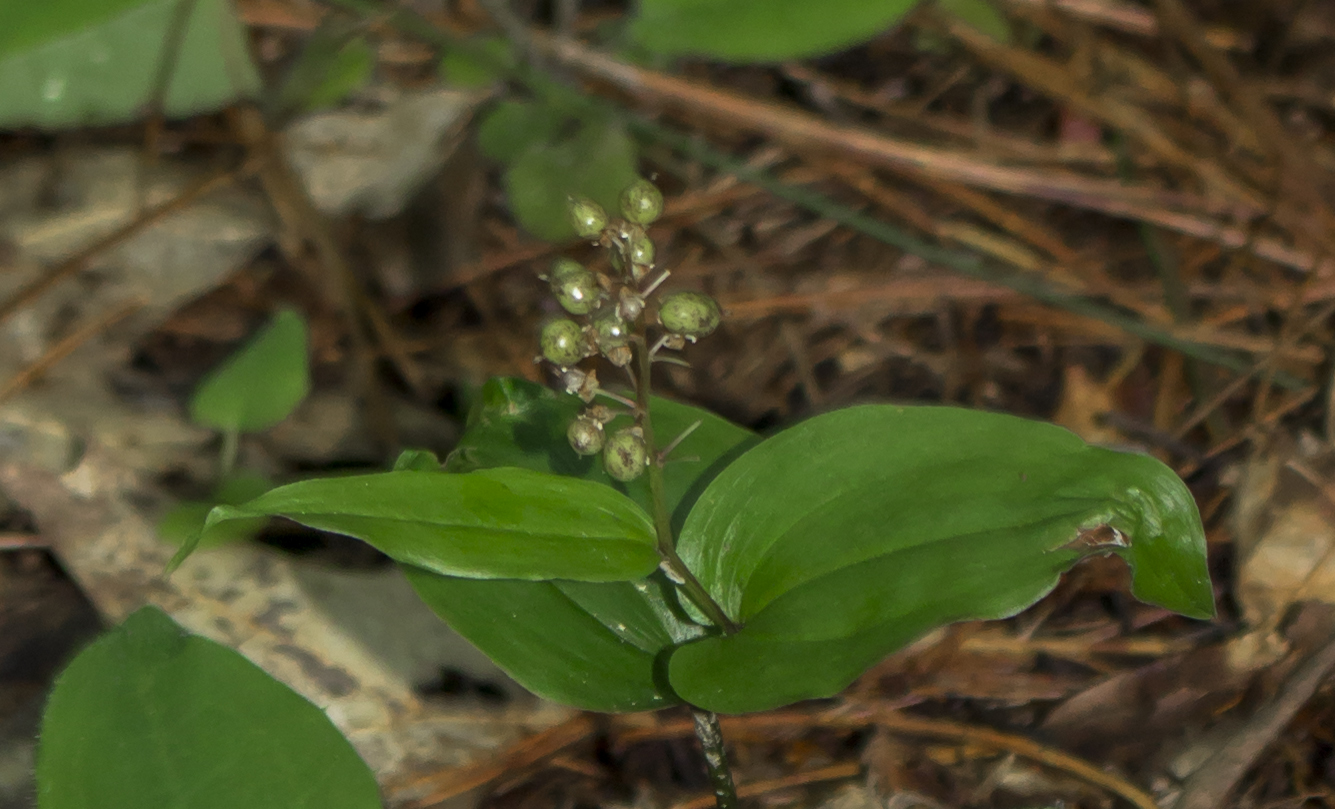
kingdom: Plantae
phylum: Tracheophyta
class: Liliopsida
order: Asparagales
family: Asparagaceae
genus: Maianthemum
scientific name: Maianthemum canadense
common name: False lily-of-the-valley
